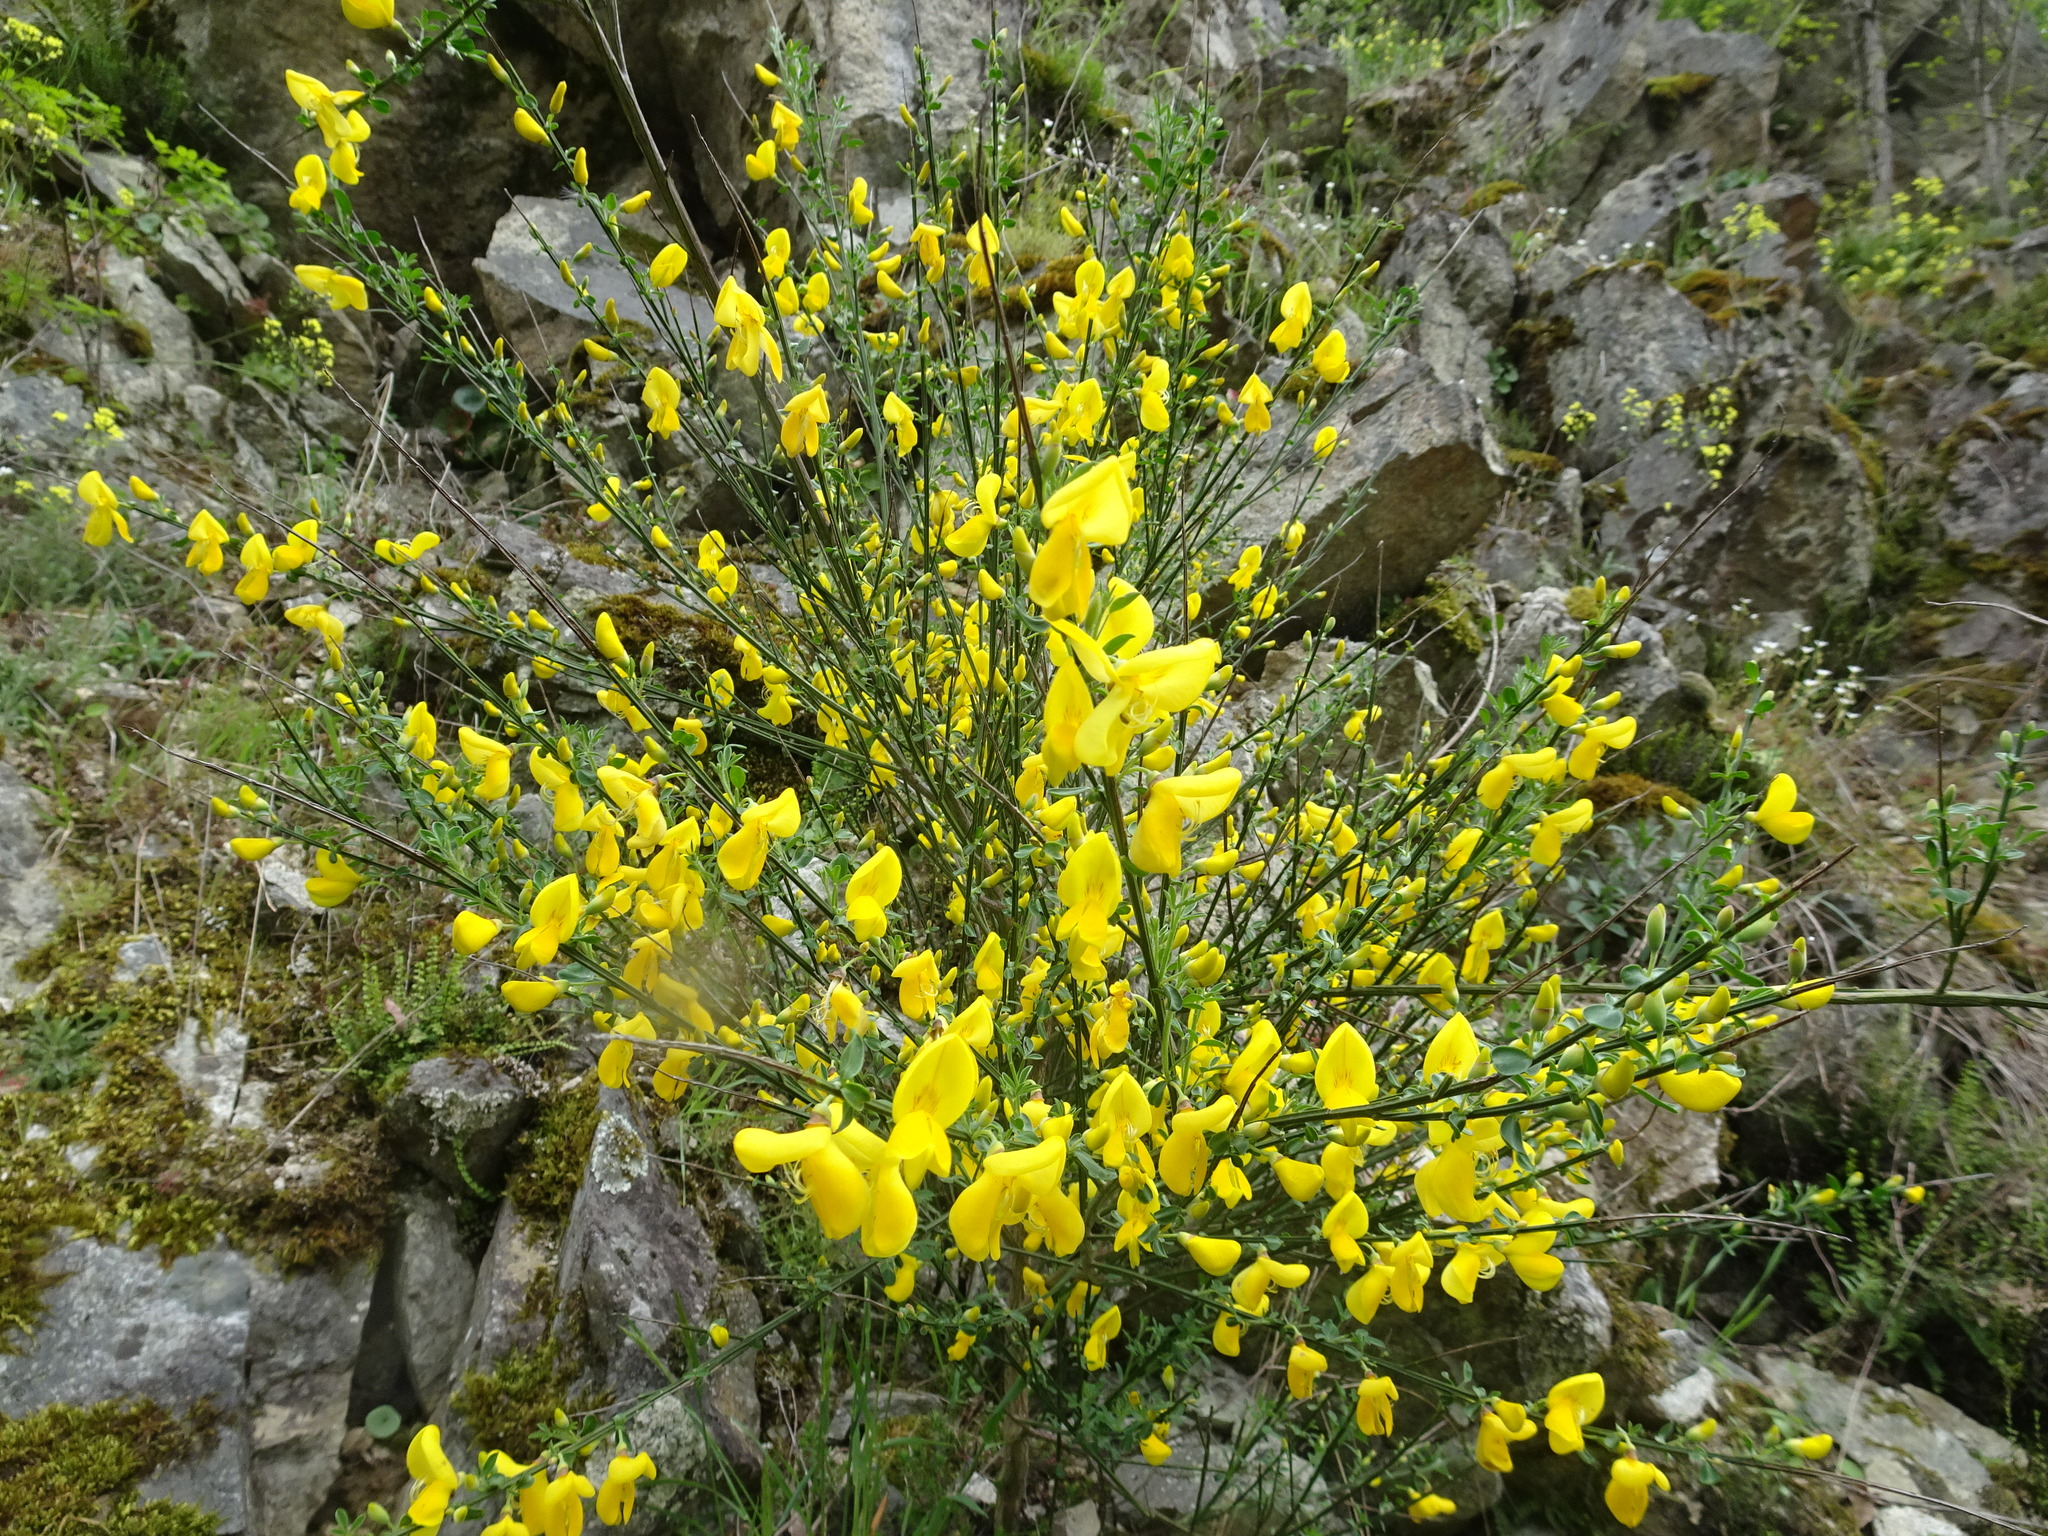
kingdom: Plantae
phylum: Tracheophyta
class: Magnoliopsida
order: Fabales
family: Fabaceae
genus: Cytisus
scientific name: Cytisus scoparius
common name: Scotch broom
